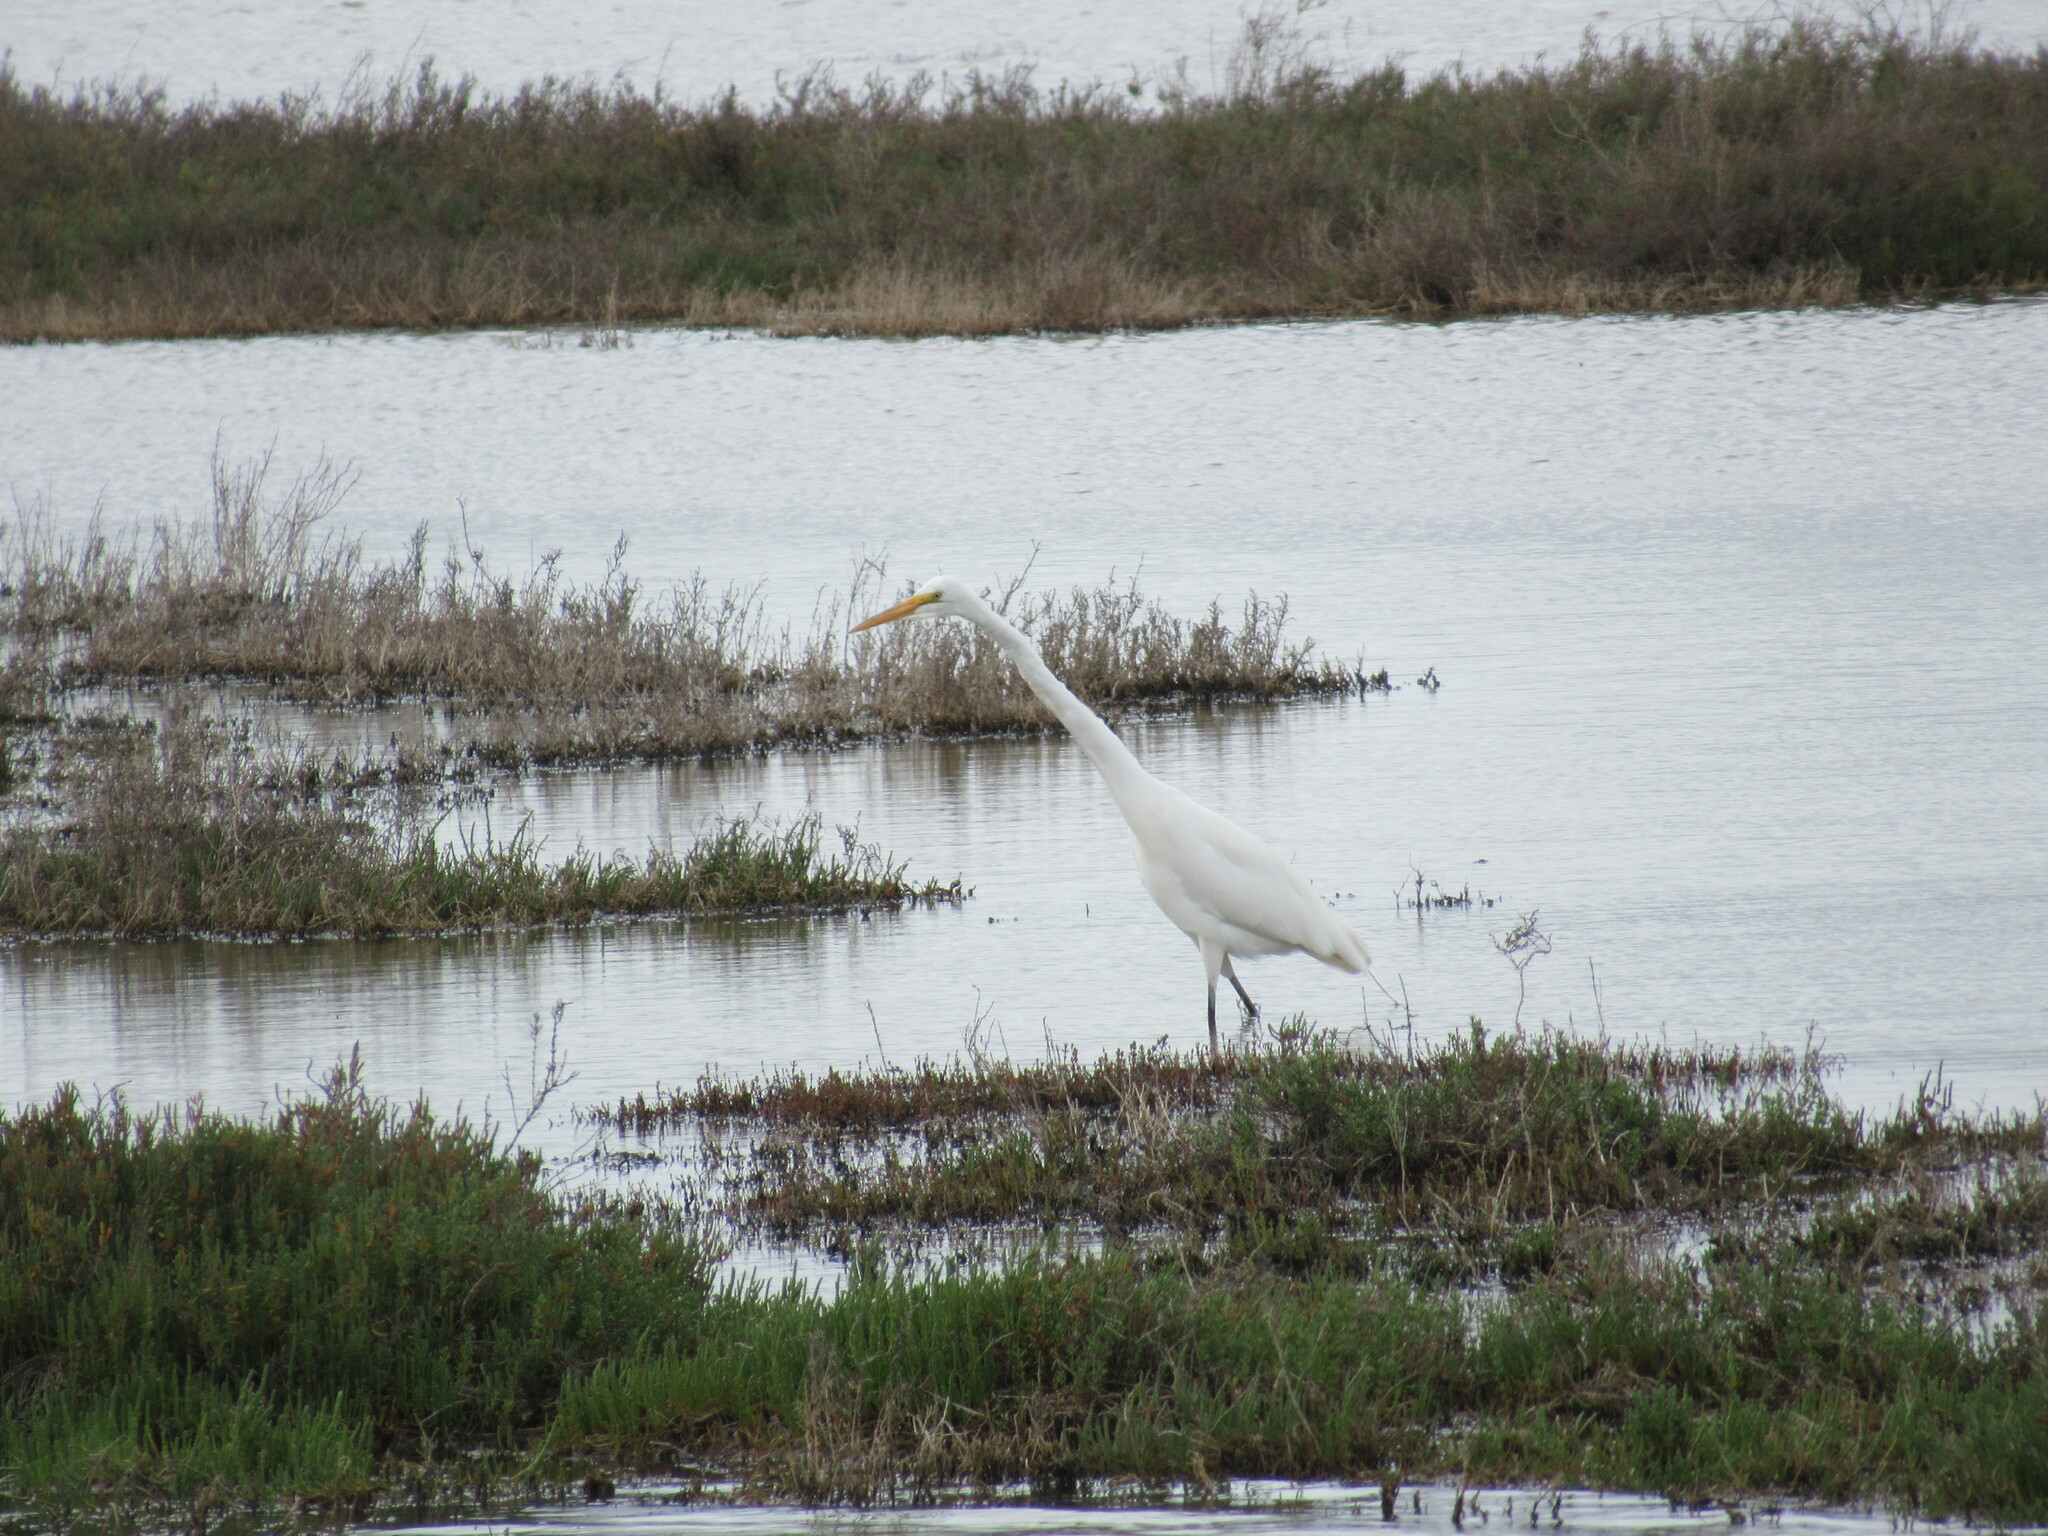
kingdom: Animalia
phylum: Chordata
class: Aves
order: Pelecaniformes
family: Ardeidae
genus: Ardea
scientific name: Ardea alba
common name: Great egret
